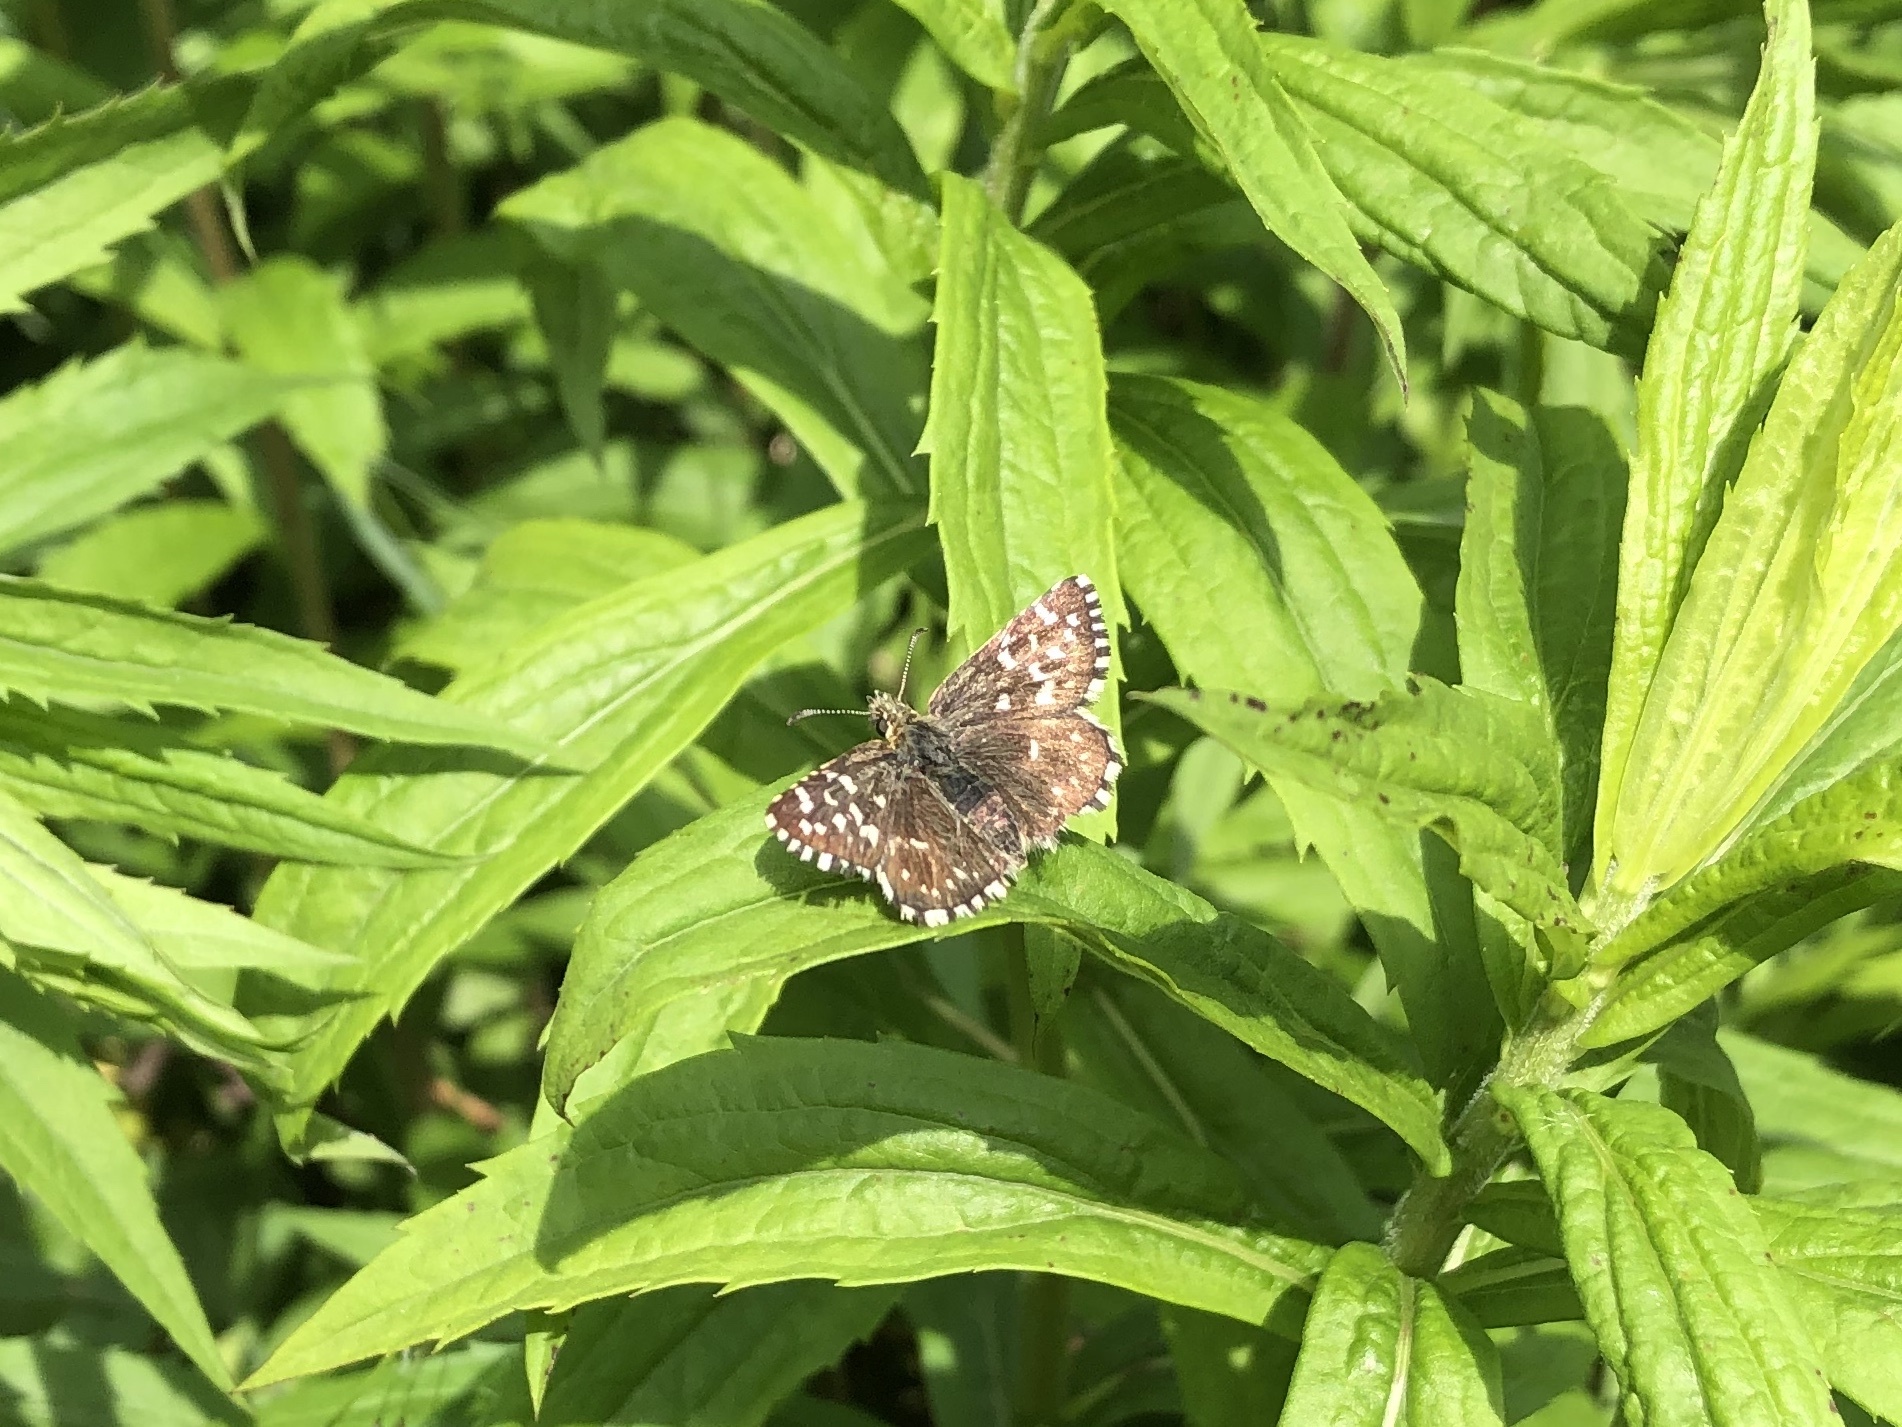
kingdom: Animalia
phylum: Arthropoda
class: Insecta
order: Lepidoptera
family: Hesperiidae
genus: Pyrgus
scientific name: Pyrgus malvae
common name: Grizzled skipper
